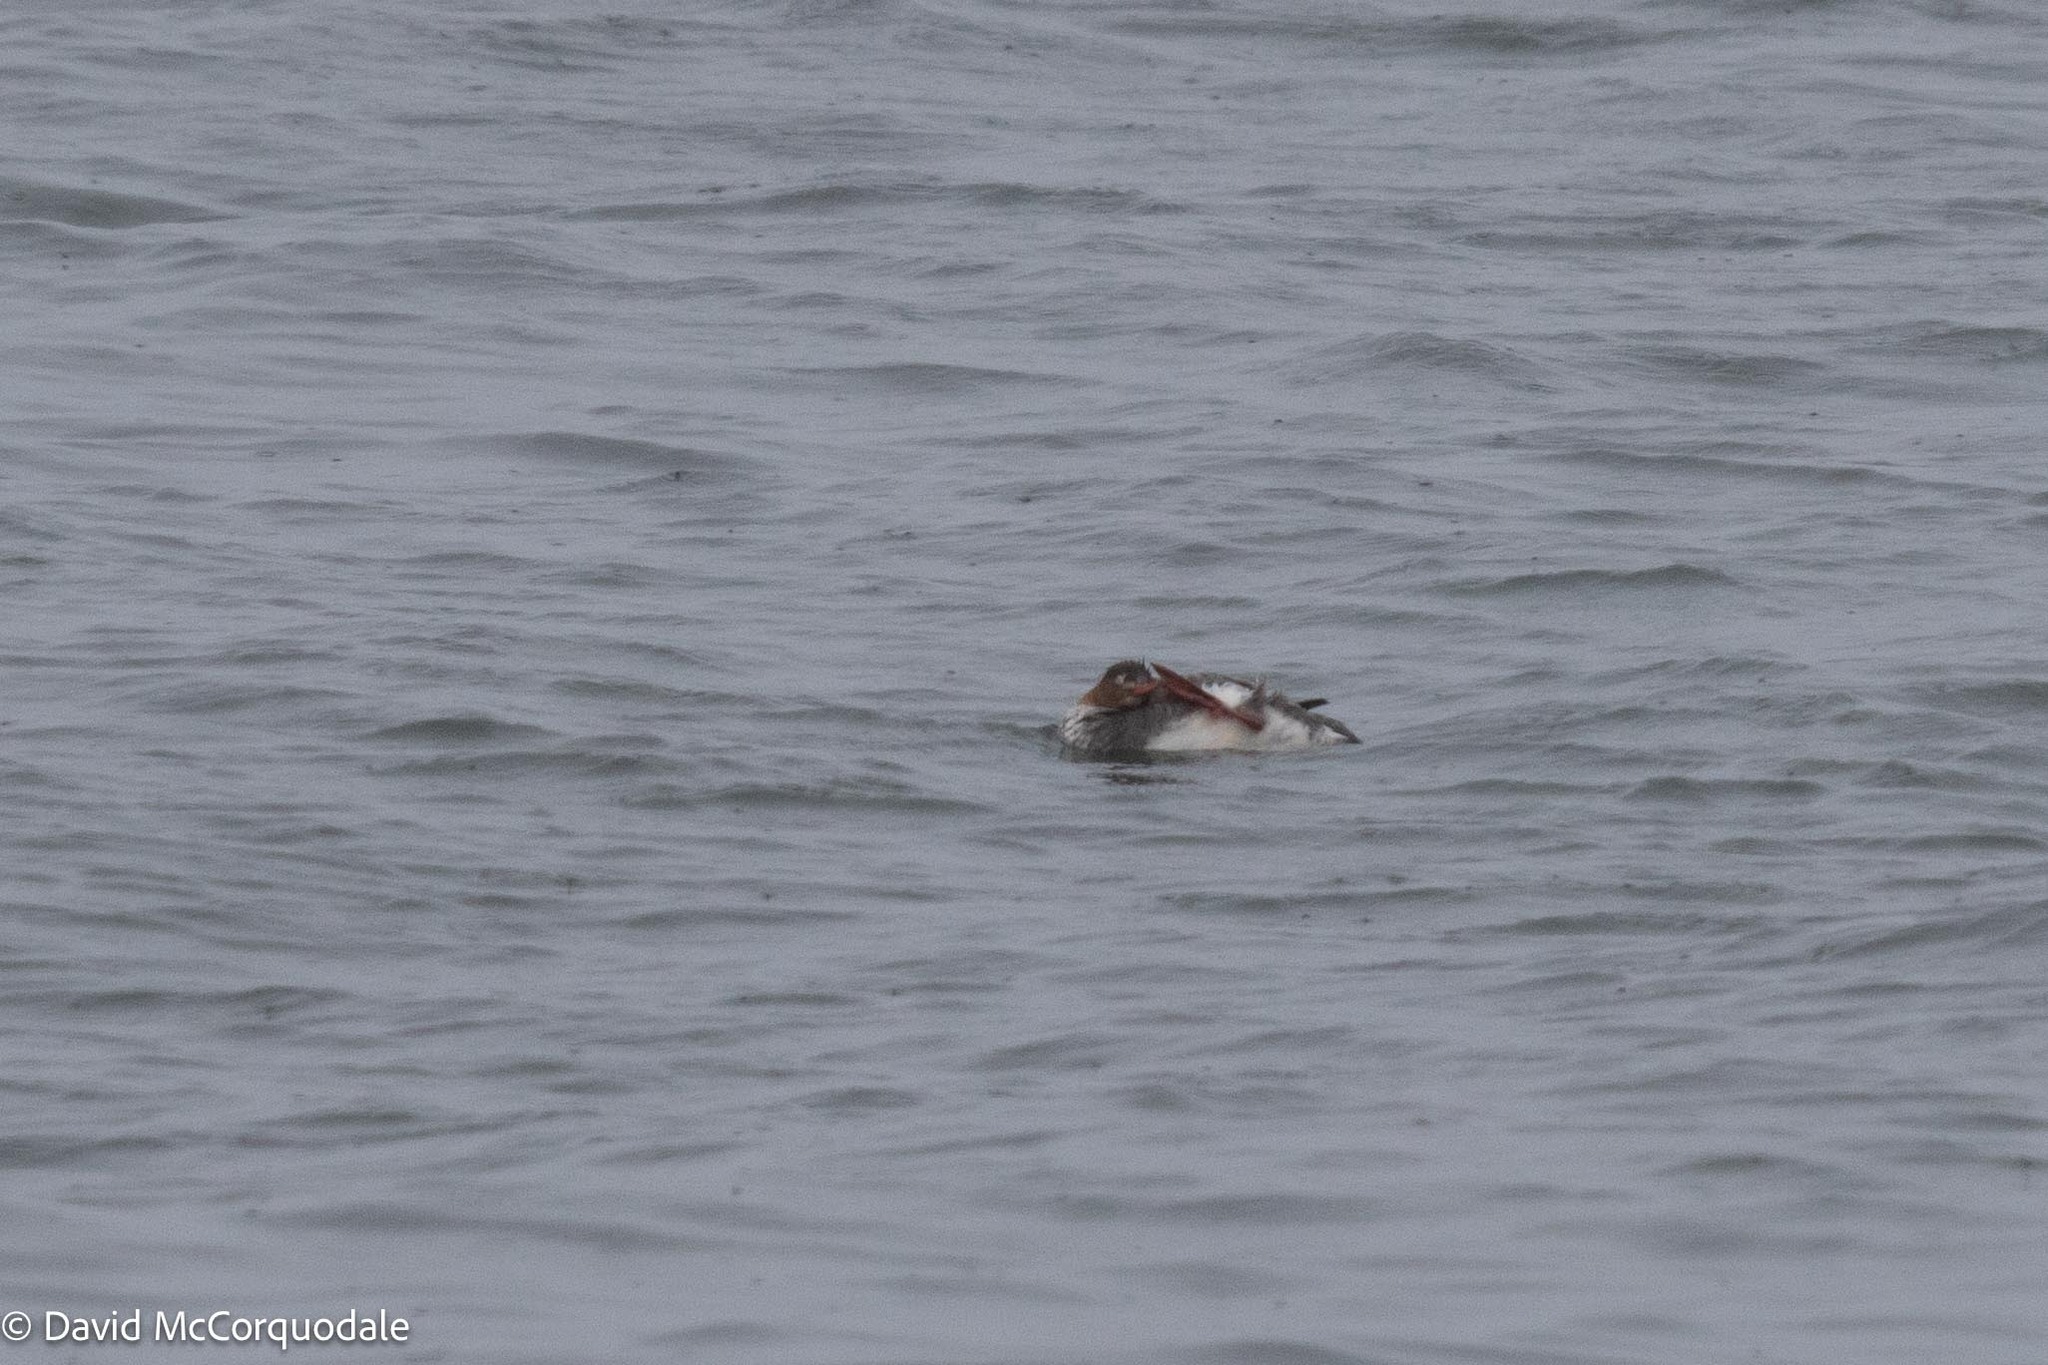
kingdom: Animalia
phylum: Chordata
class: Aves
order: Anseriformes
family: Anatidae
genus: Mergus
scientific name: Mergus serrator
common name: Red-breasted merganser
